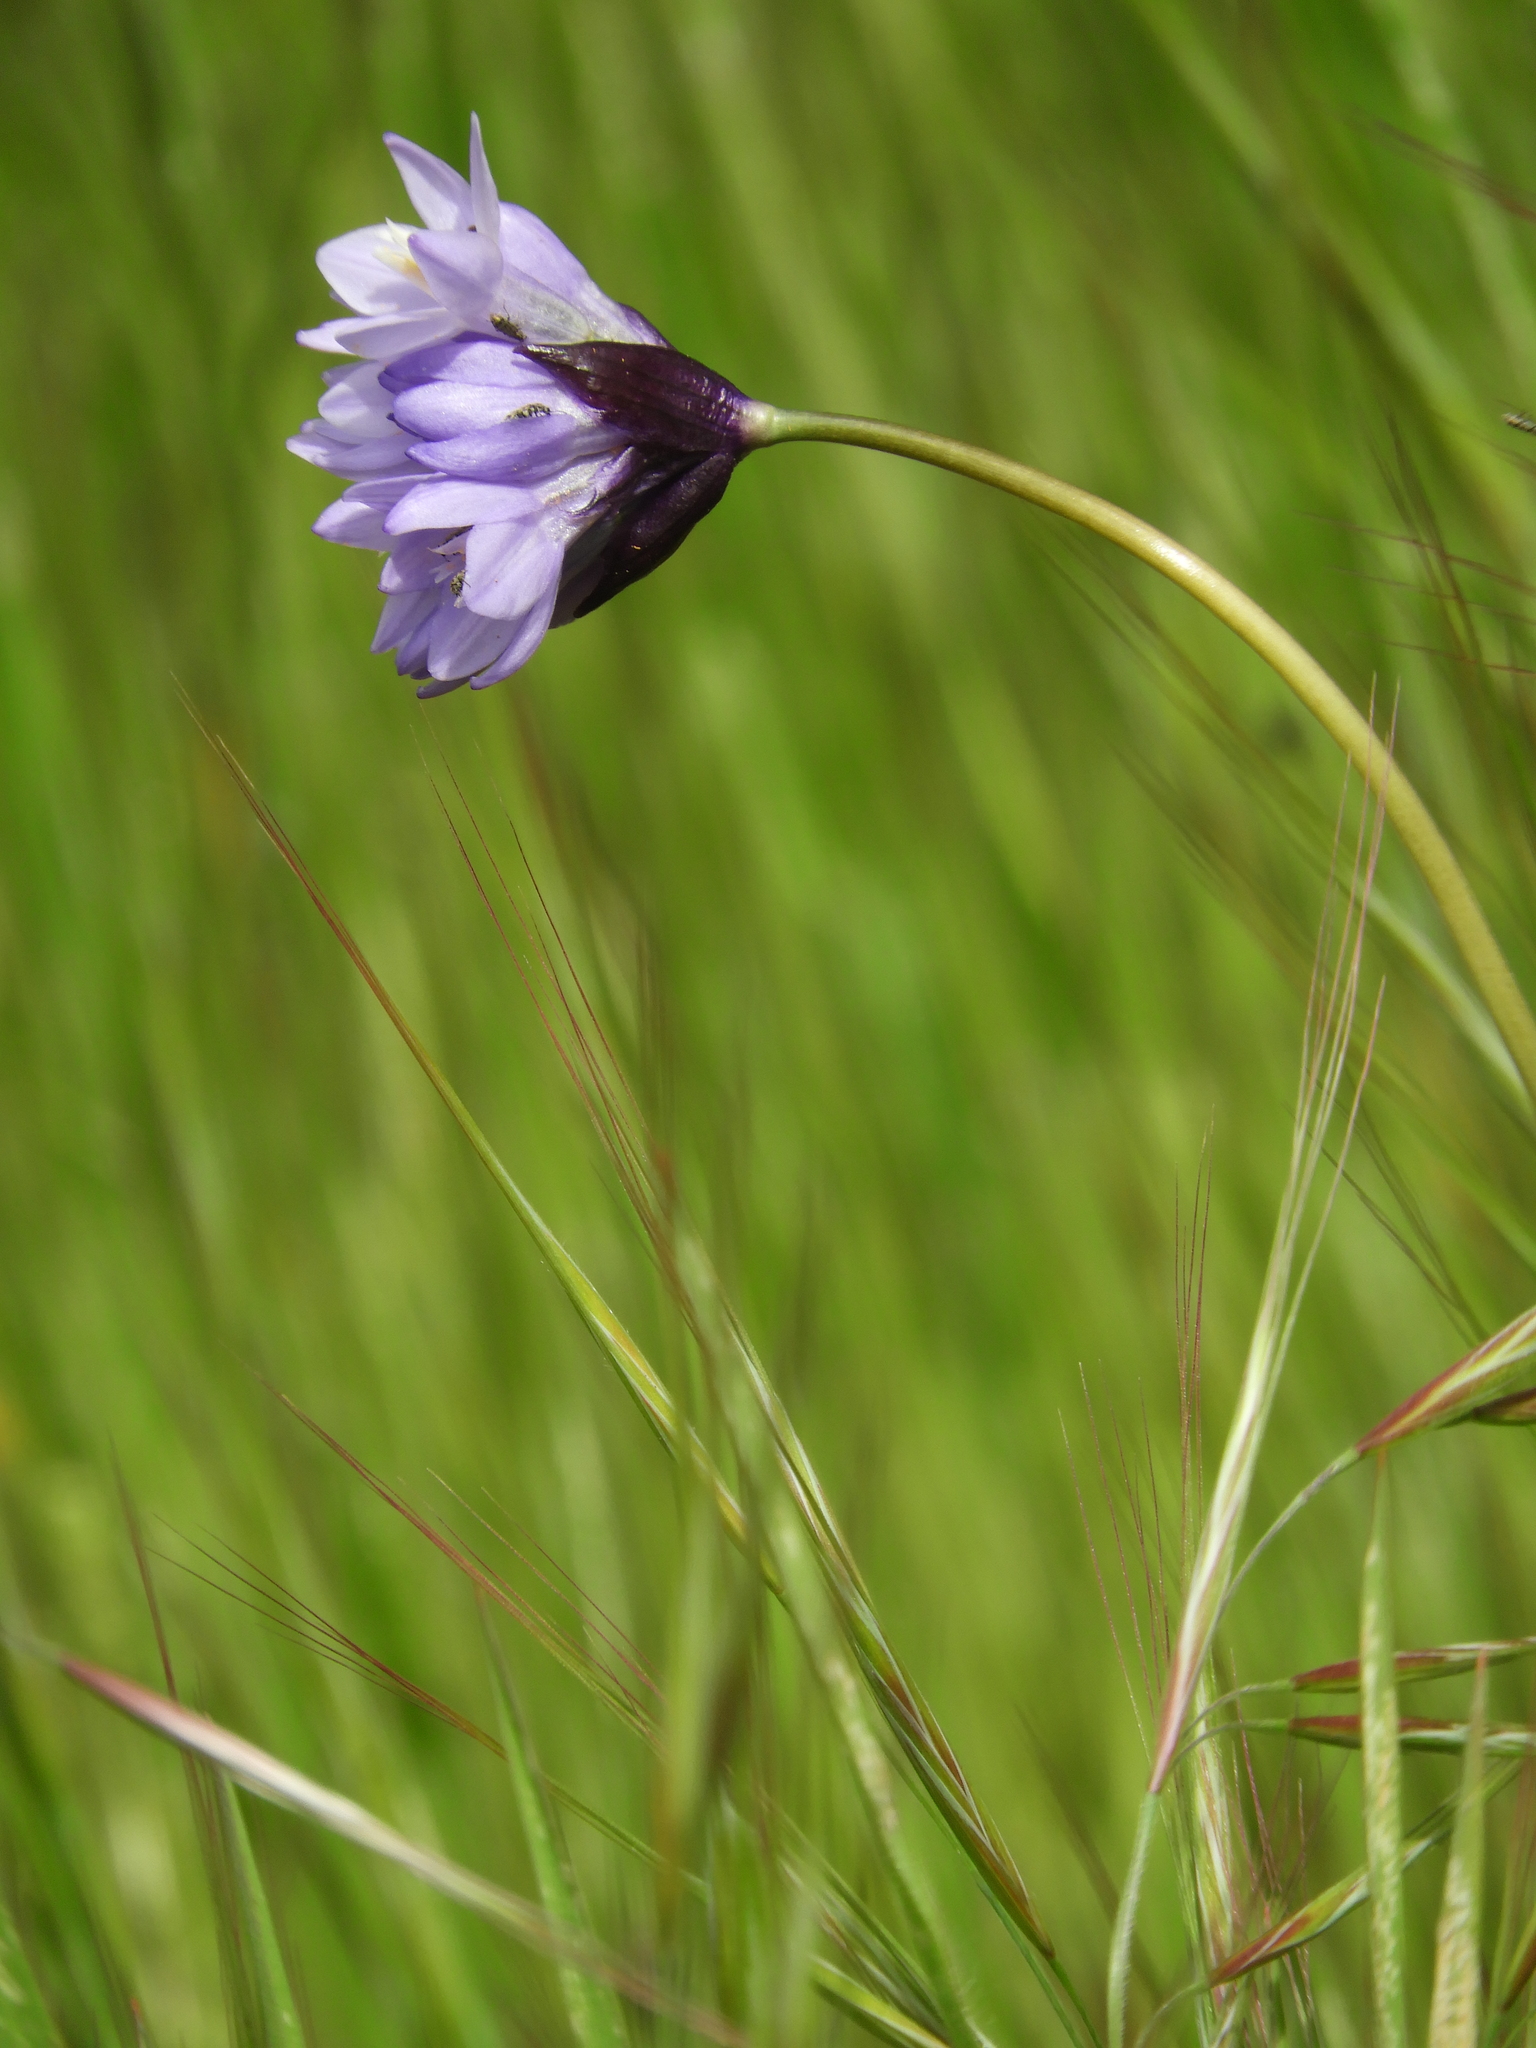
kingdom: Plantae
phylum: Tracheophyta
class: Liliopsida
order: Asparagales
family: Asparagaceae
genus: Dipterostemon
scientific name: Dipterostemon capitatus
